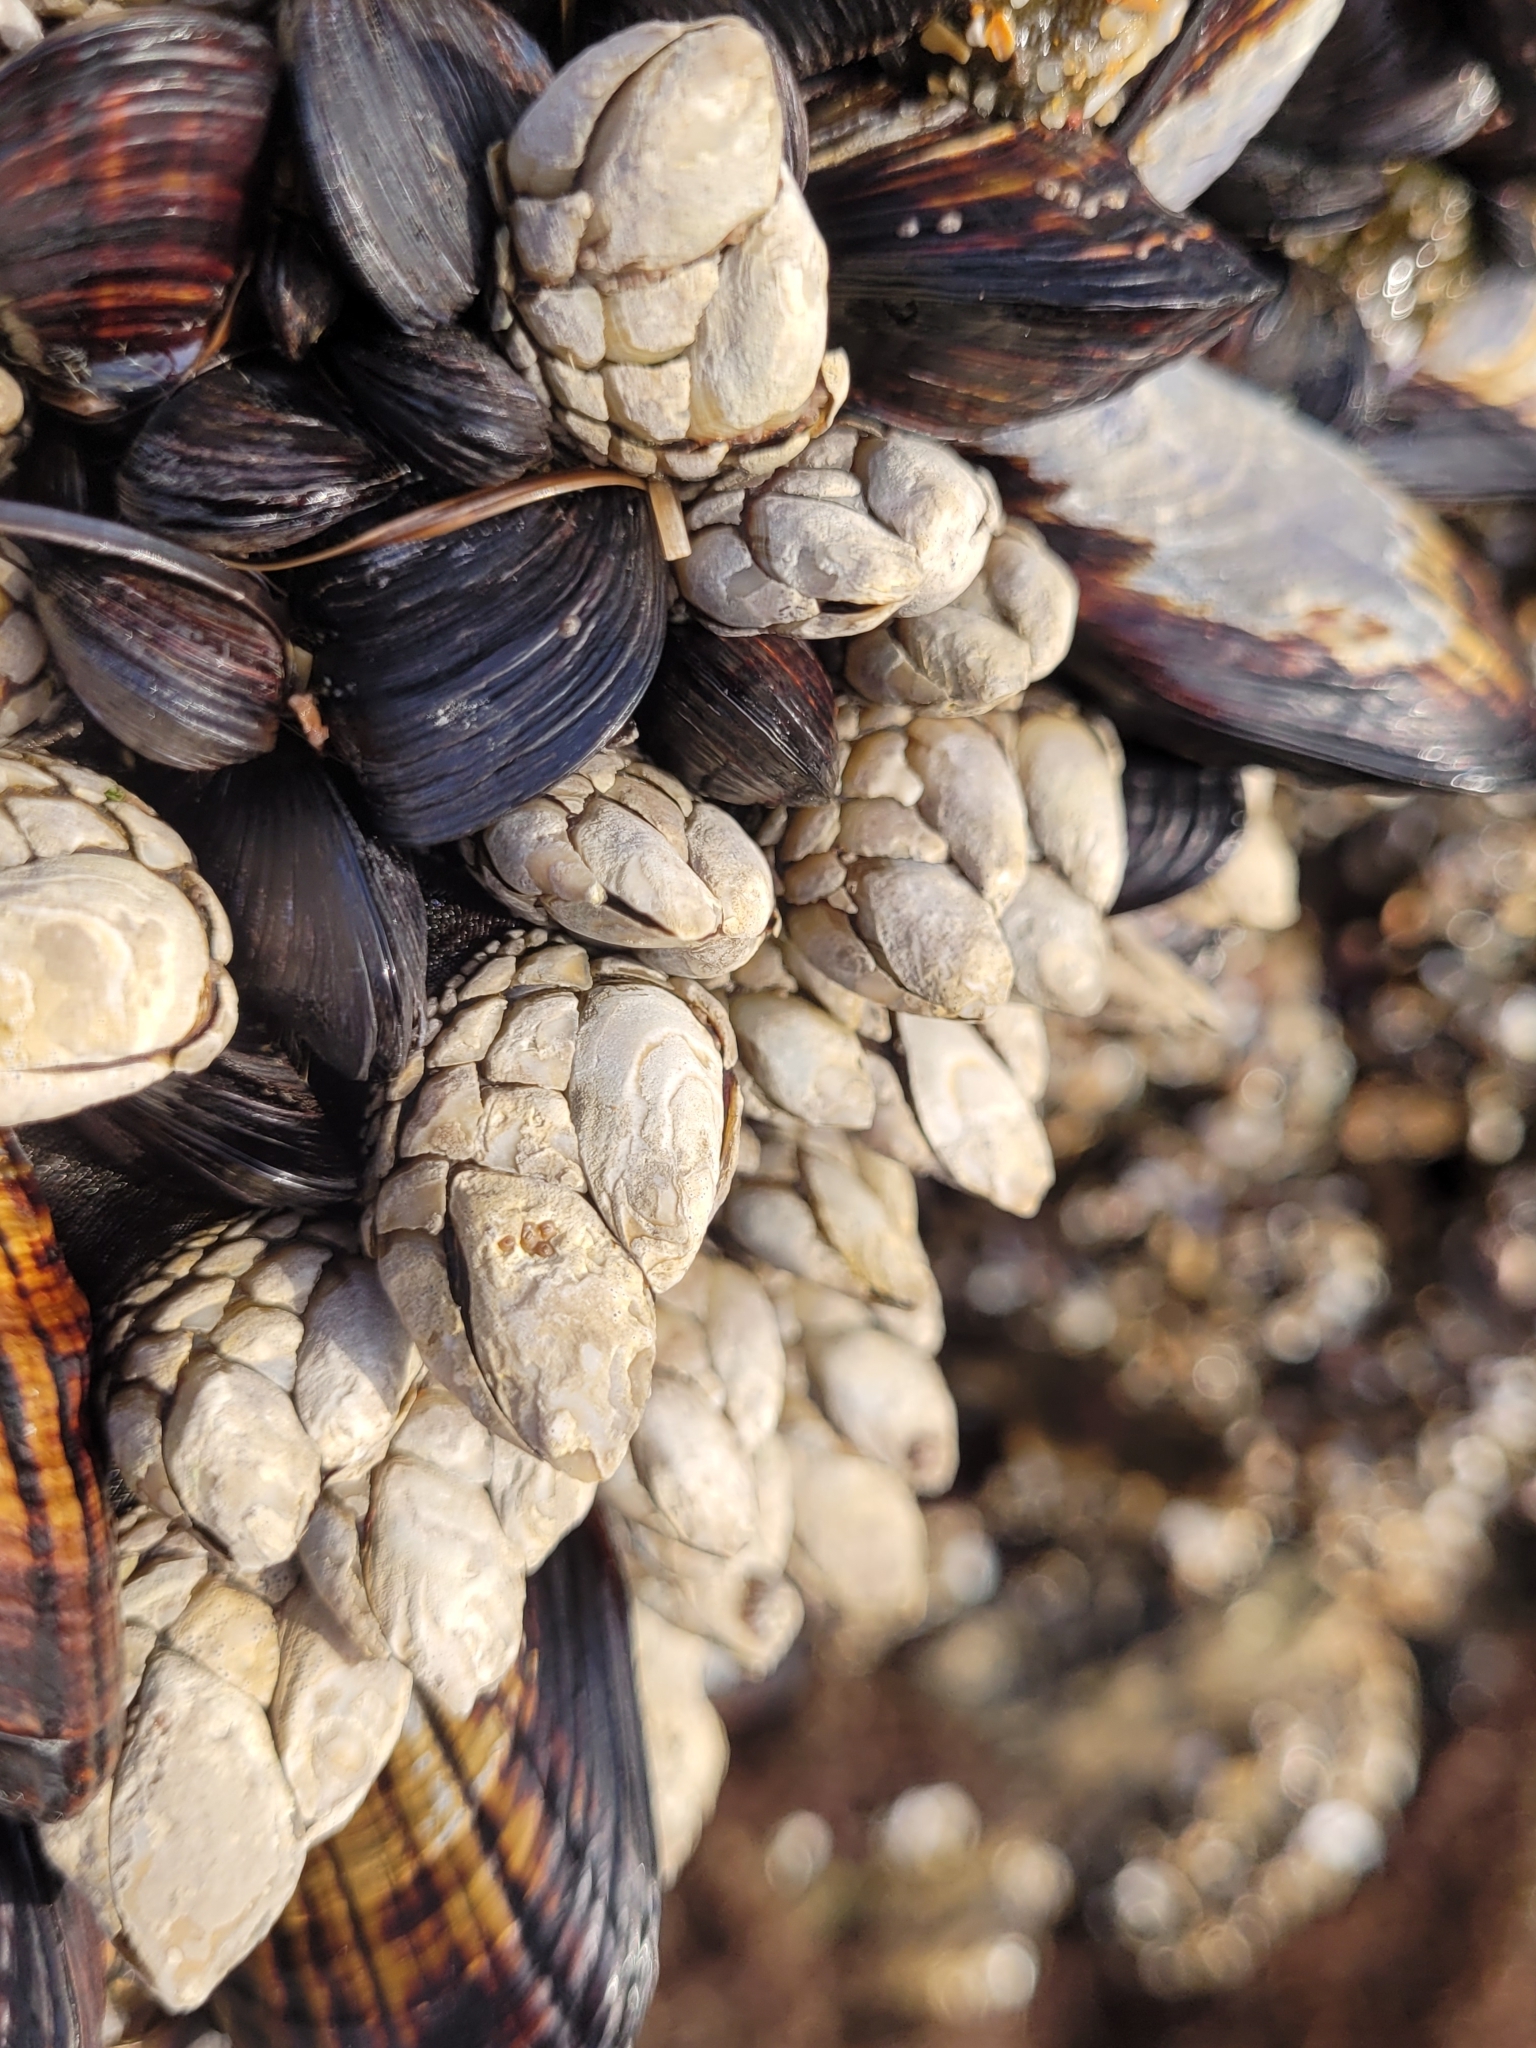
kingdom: Animalia
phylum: Arthropoda
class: Maxillopoda
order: Pedunculata
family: Pollicipedidae
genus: Pollicipes
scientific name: Pollicipes polymerus
